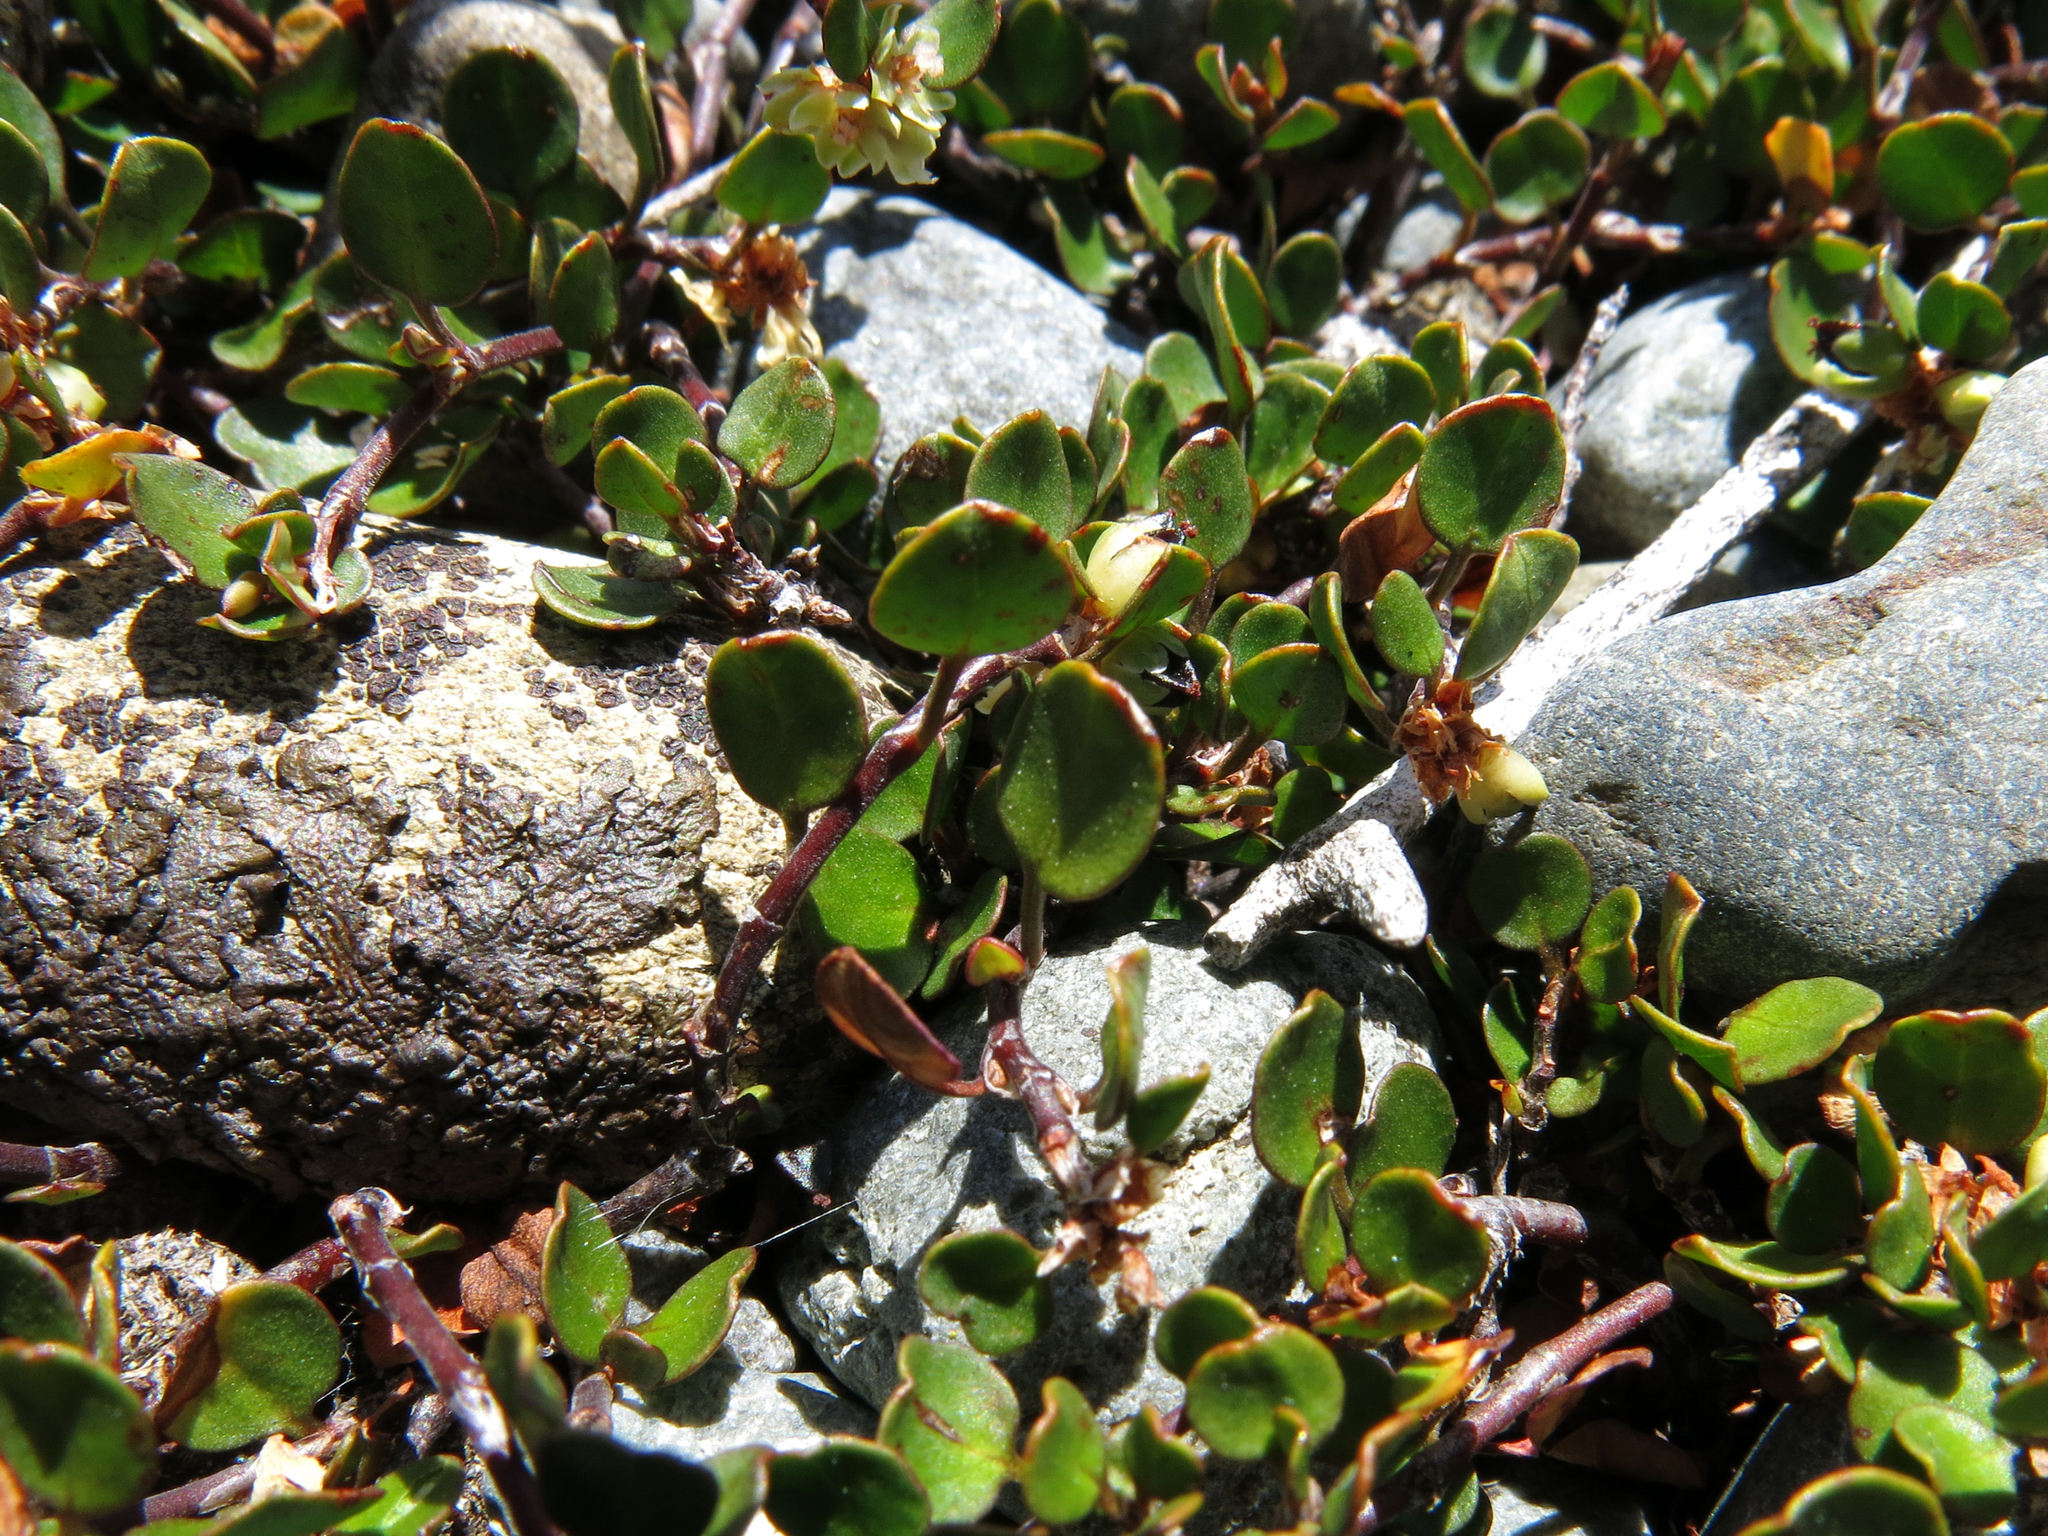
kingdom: Plantae
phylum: Tracheophyta
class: Magnoliopsida
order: Caryophyllales
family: Polygonaceae
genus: Muehlenbeckia
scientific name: Muehlenbeckia axillaris
